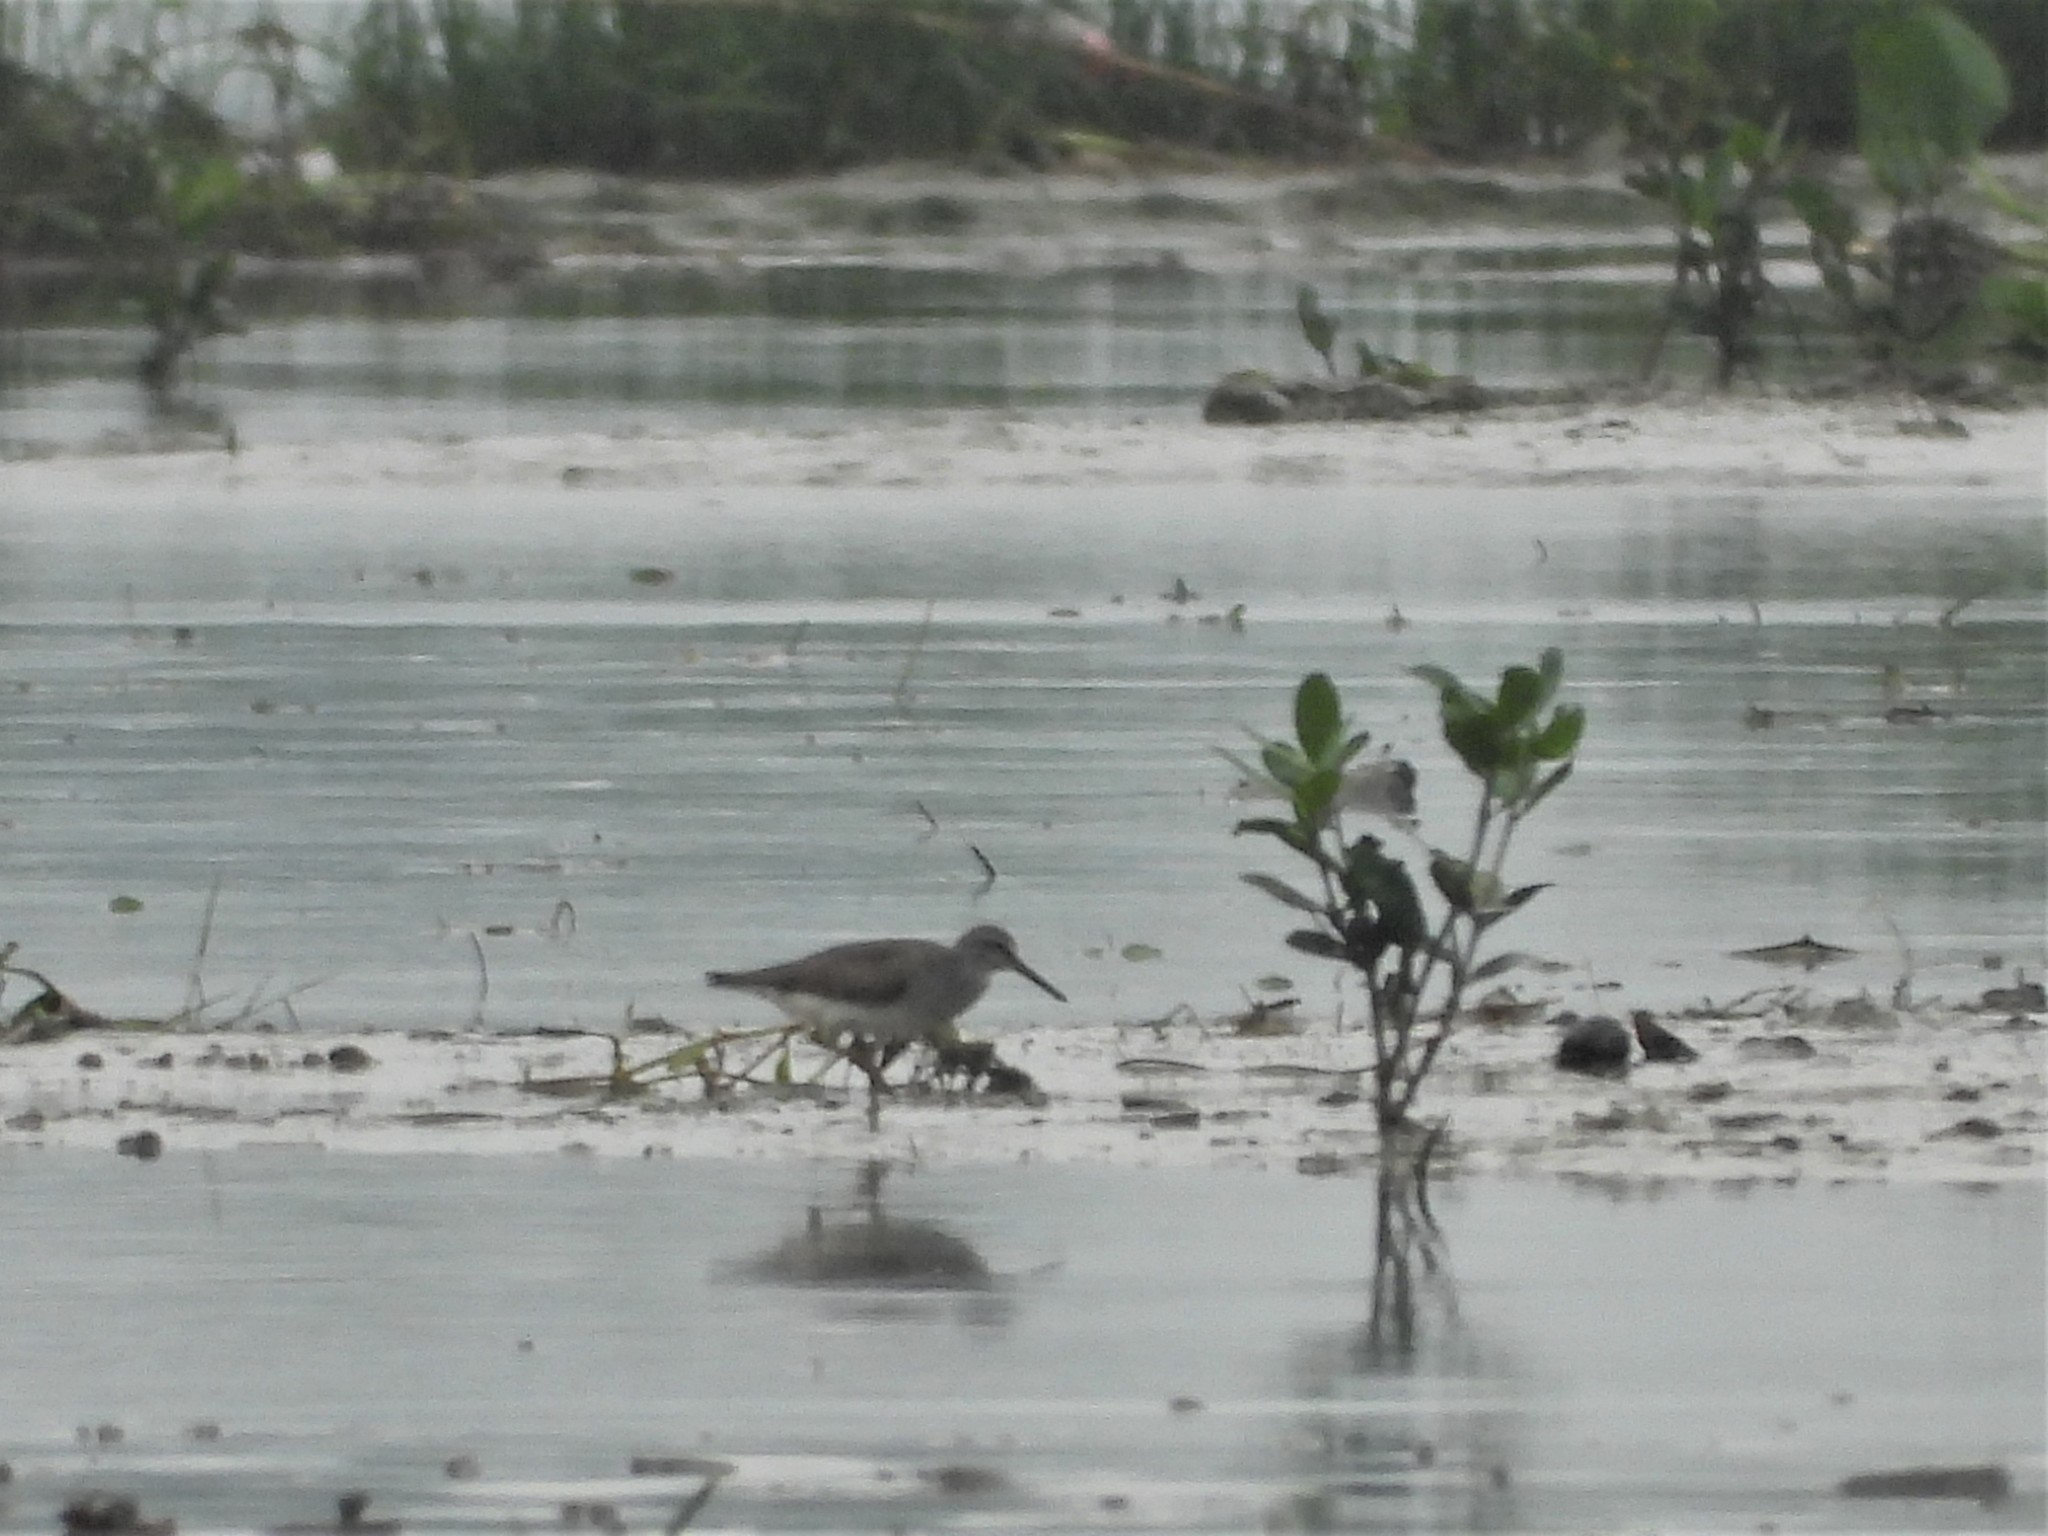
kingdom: Animalia
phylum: Chordata
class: Aves
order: Charadriiformes
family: Scolopacidae
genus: Tringa
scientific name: Tringa brevipes
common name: Grey-tailed tattler
